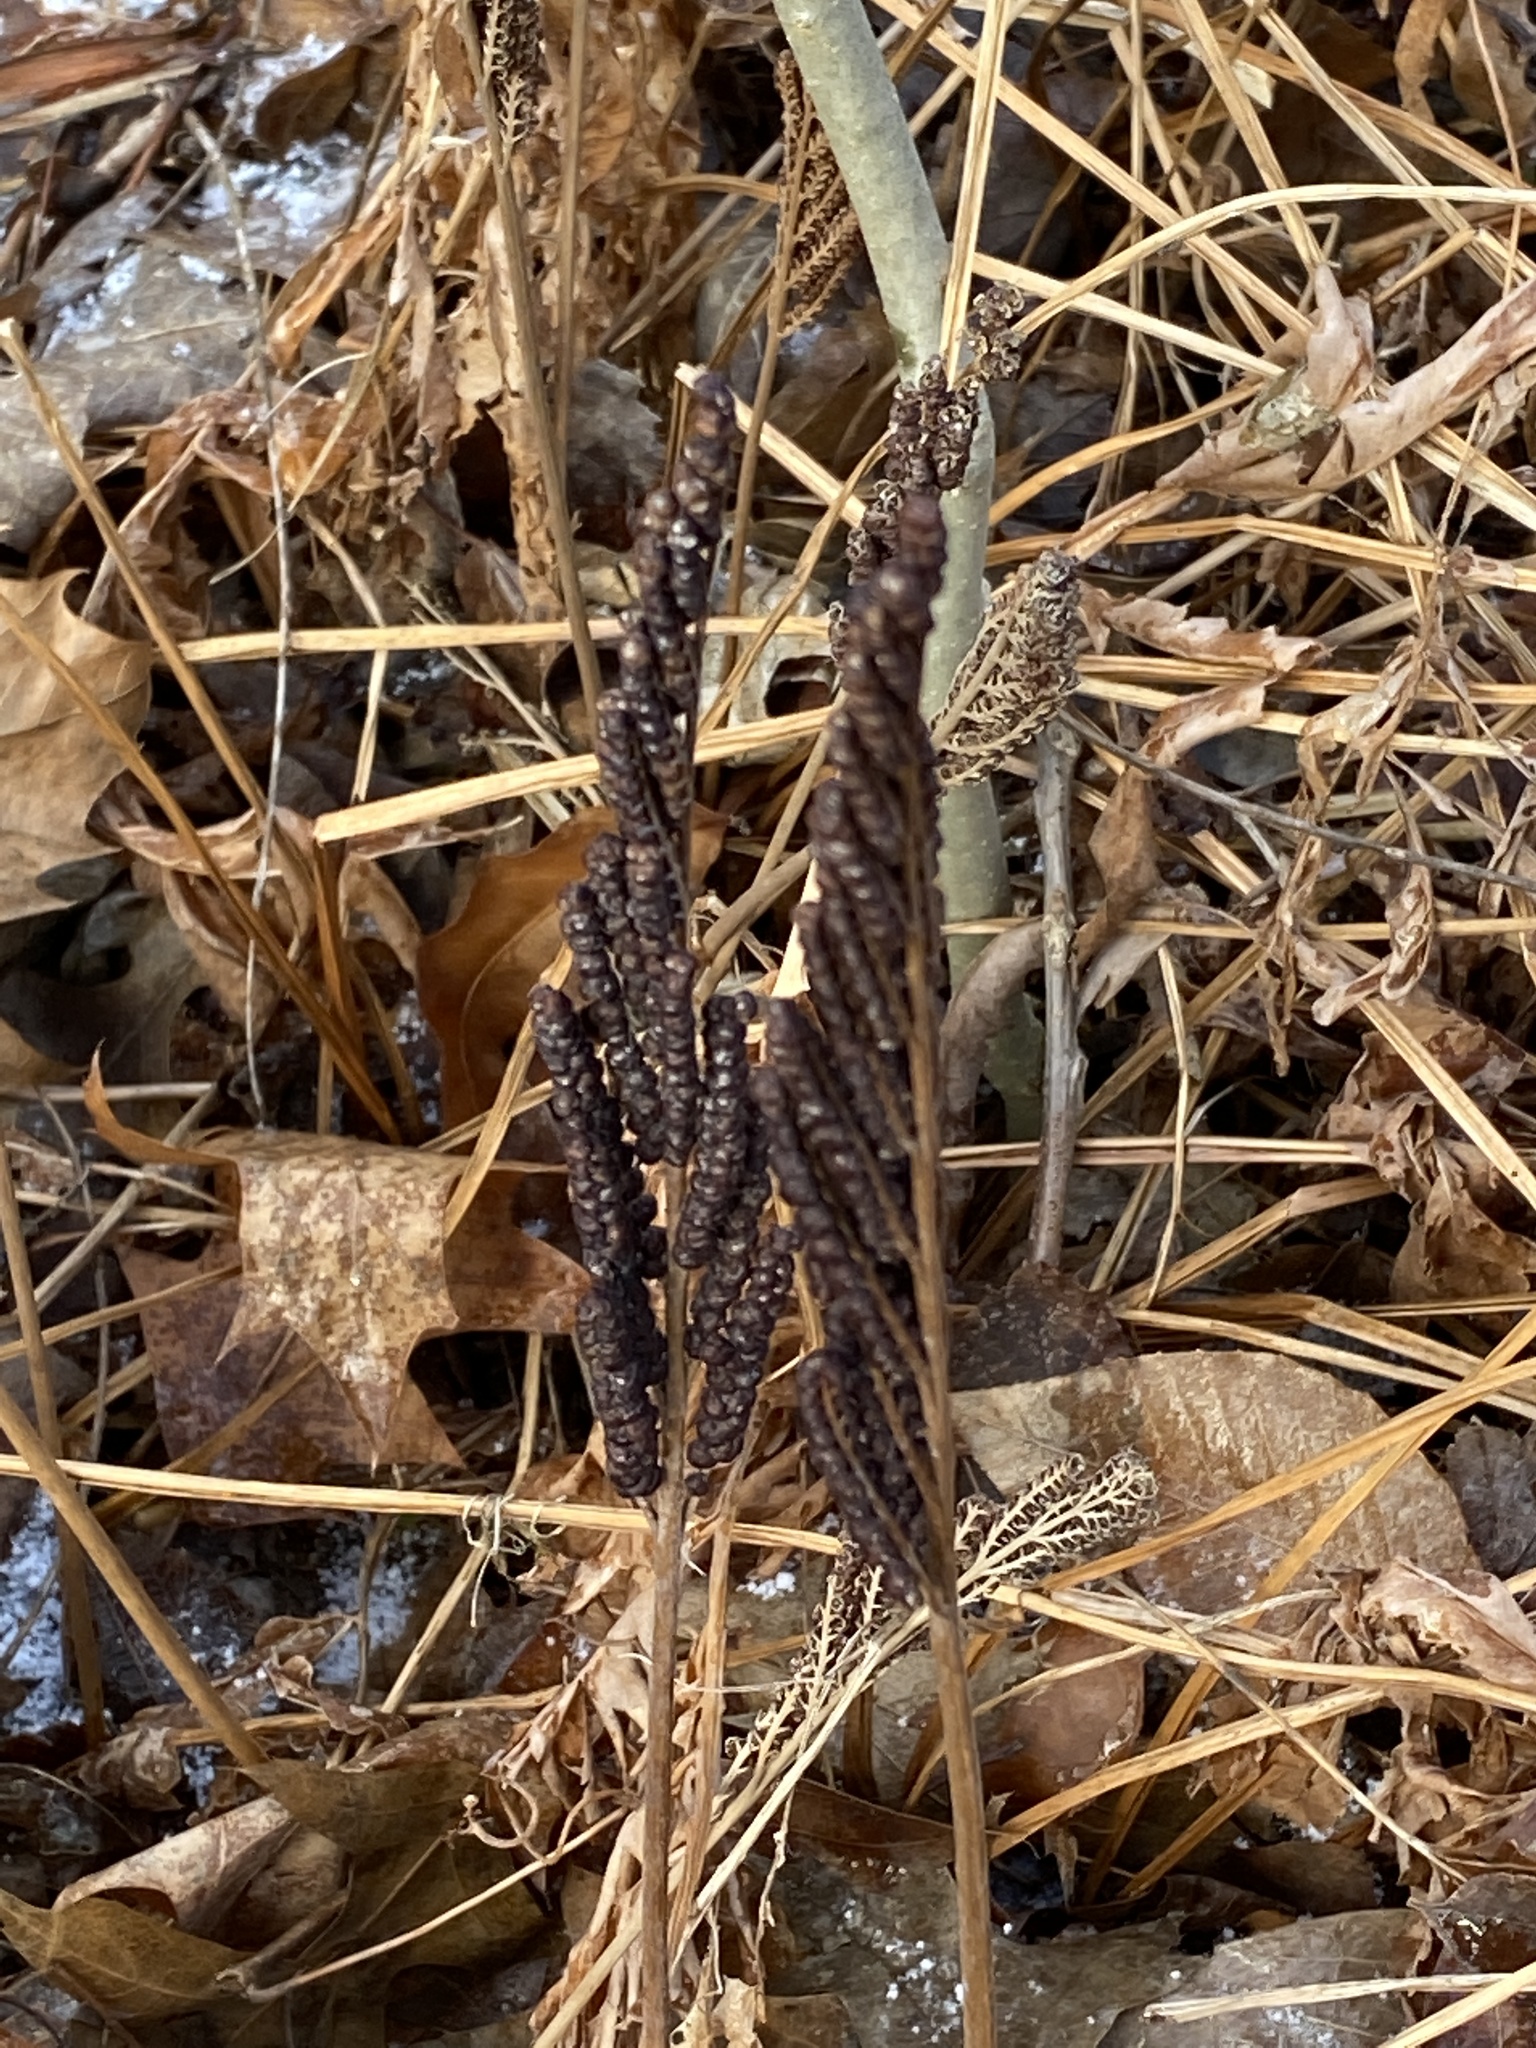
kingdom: Plantae
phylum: Tracheophyta
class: Polypodiopsida
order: Polypodiales
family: Onocleaceae
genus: Onoclea
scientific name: Onoclea sensibilis
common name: Sensitive fern
